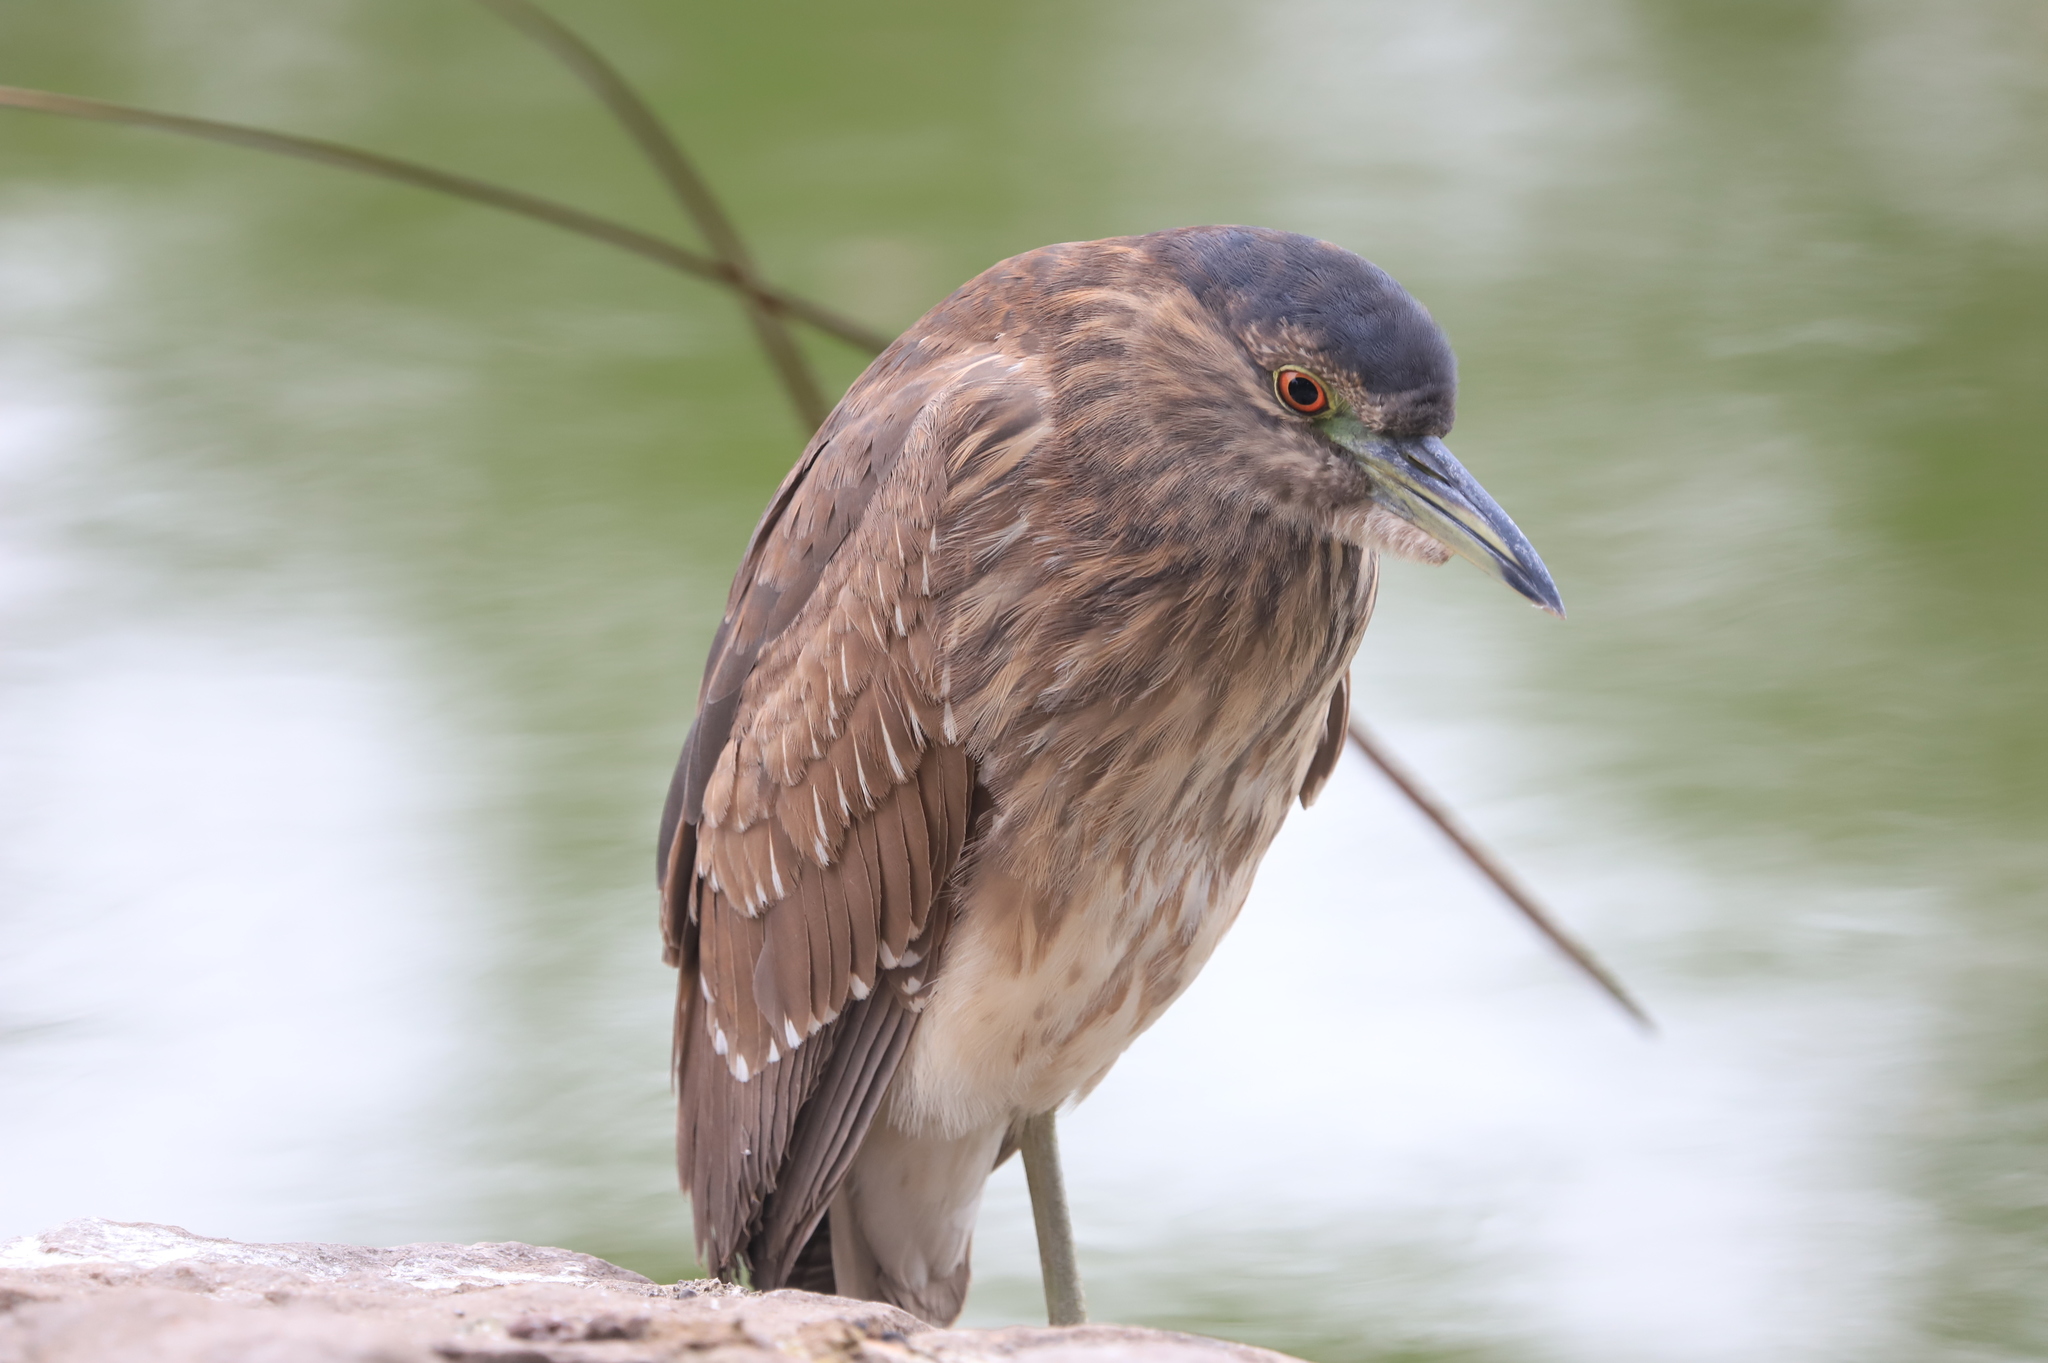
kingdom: Animalia
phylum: Chordata
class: Aves
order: Pelecaniformes
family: Ardeidae
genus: Nycticorax
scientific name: Nycticorax nycticorax
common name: Black-crowned night heron
